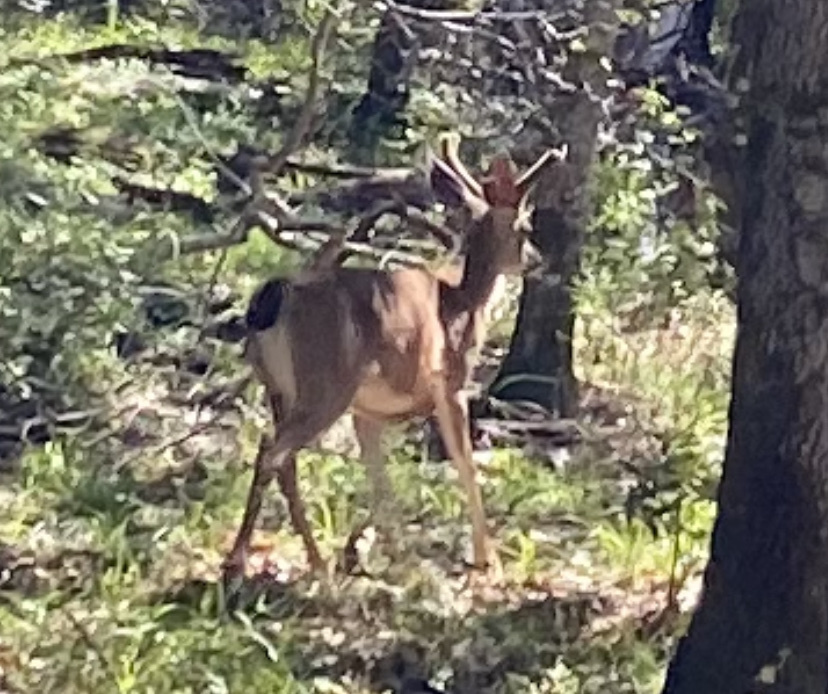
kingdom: Animalia
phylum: Chordata
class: Mammalia
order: Artiodactyla
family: Cervidae
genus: Odocoileus
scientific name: Odocoileus hemionus
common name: Mule deer
